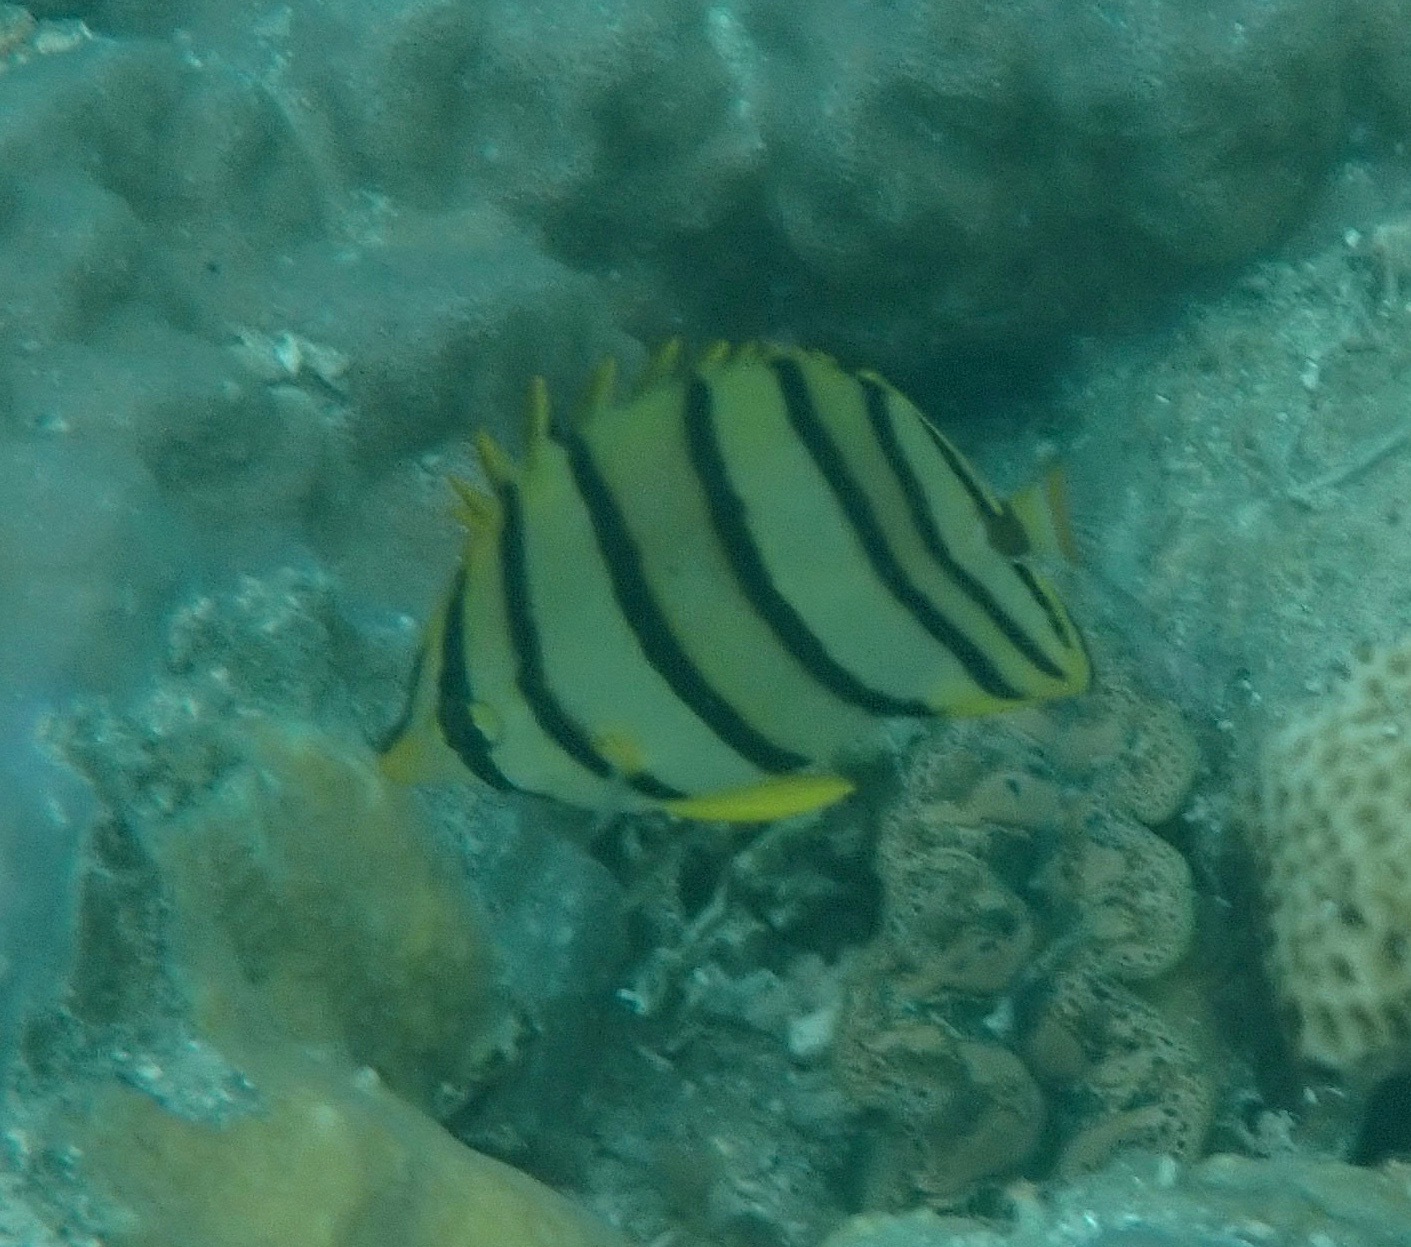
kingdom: Animalia
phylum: Chordata
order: Perciformes
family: Chaetodontidae
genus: Chaetodon
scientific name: Chaetodon octofasciatus
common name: Eightband butterflyfish
